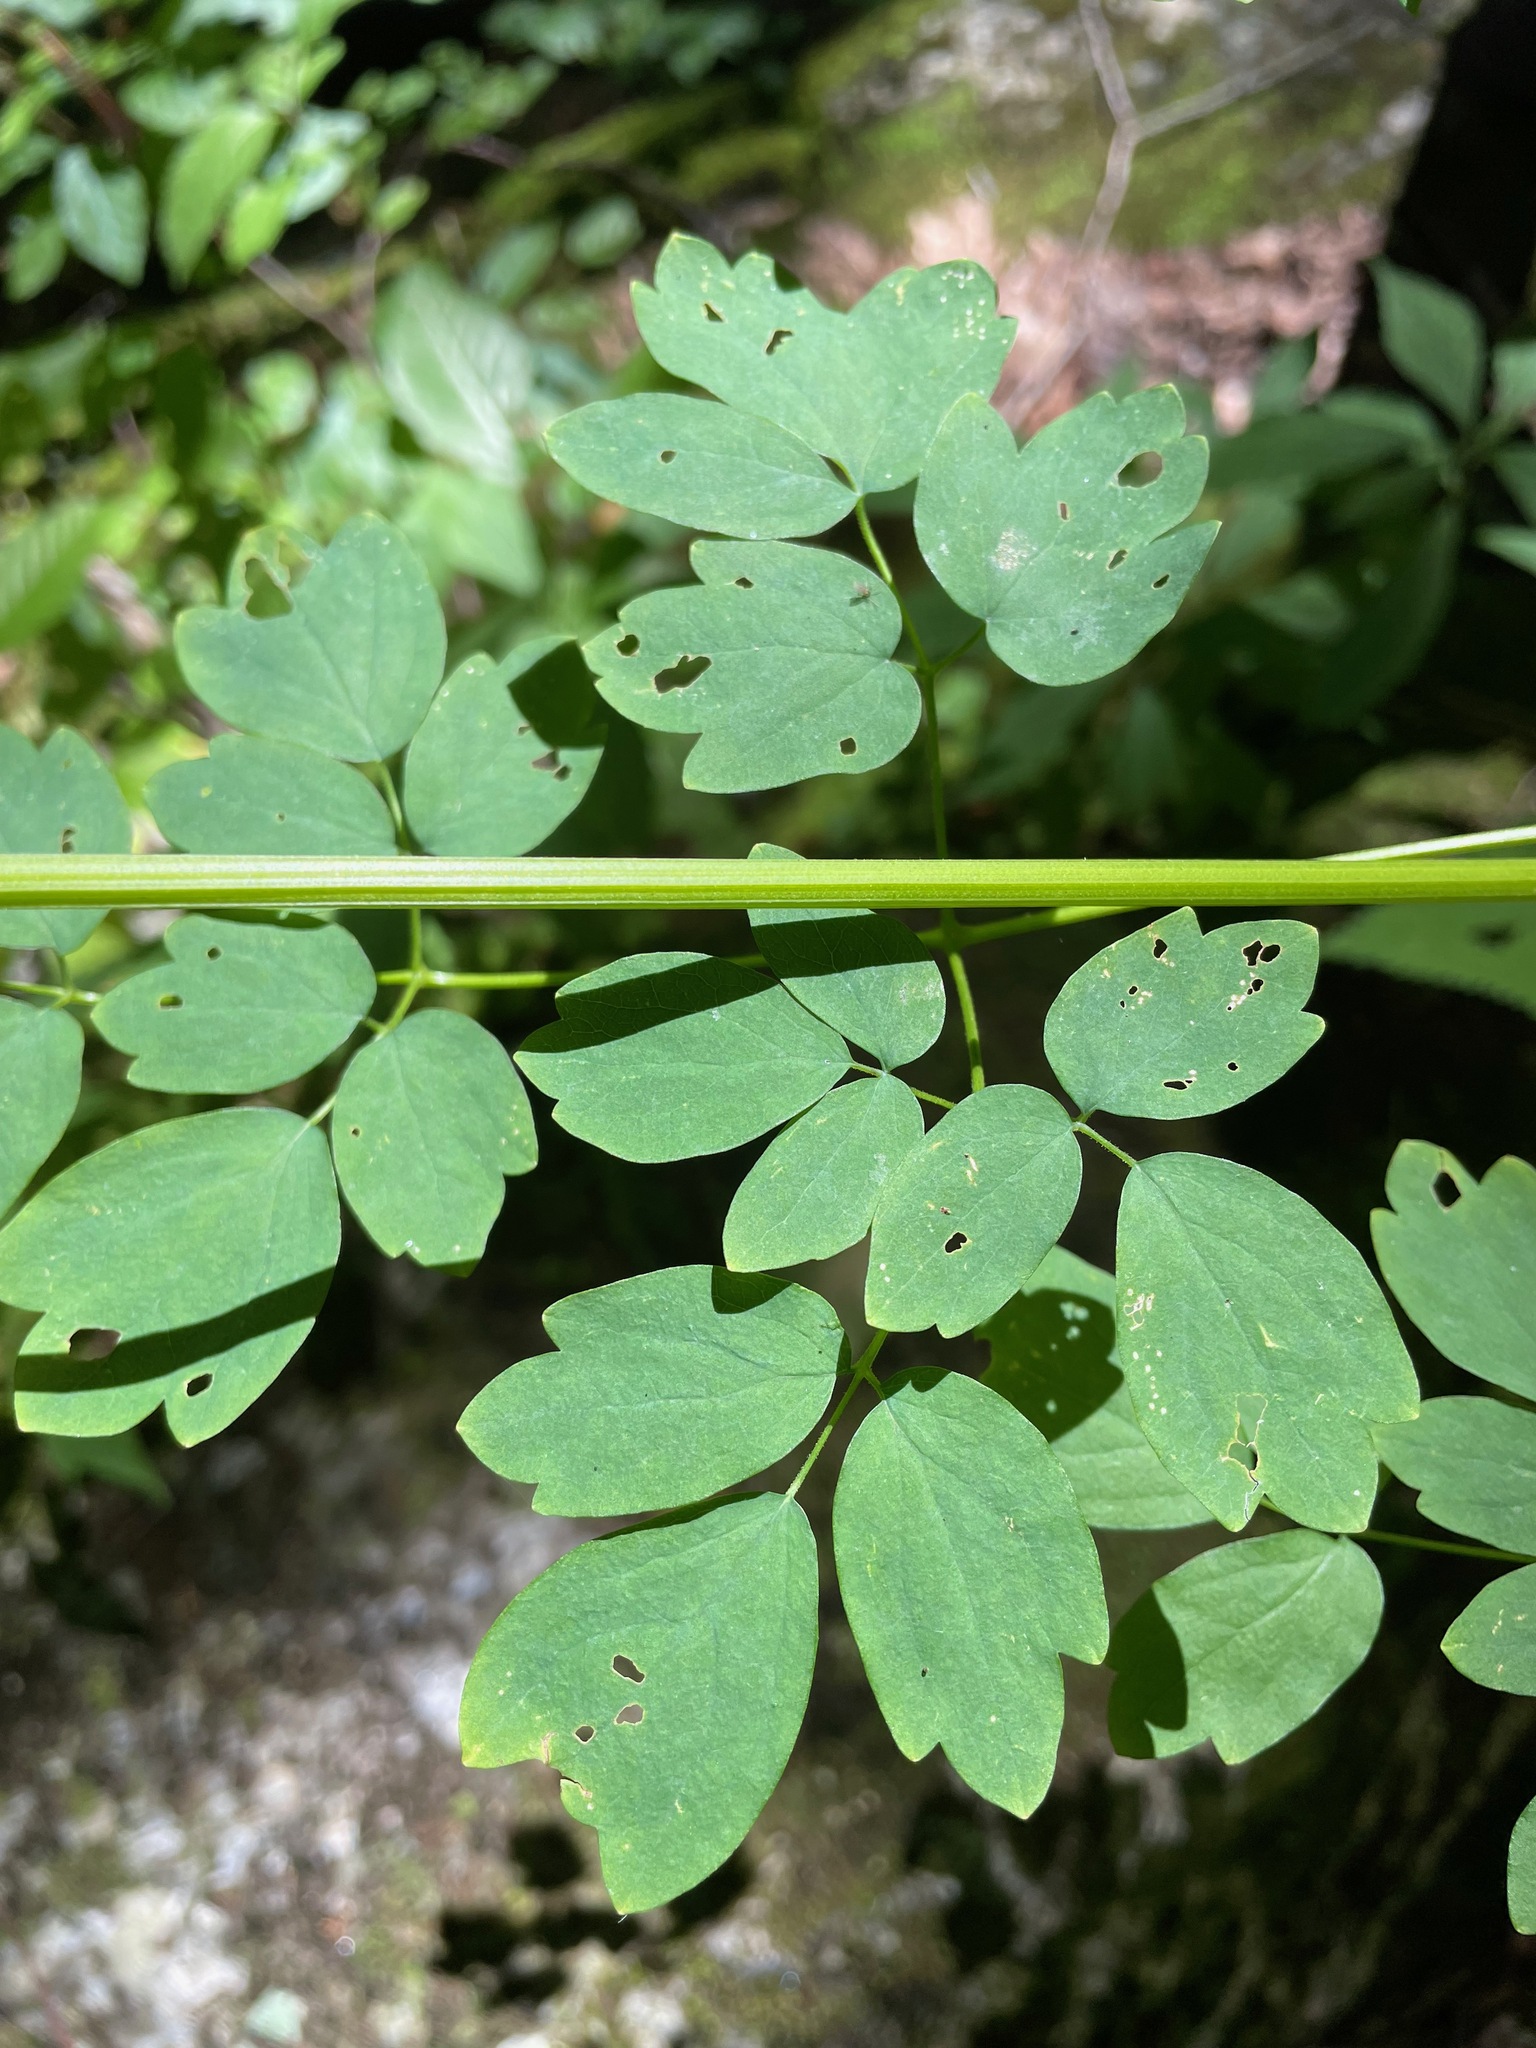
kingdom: Plantae
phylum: Tracheophyta
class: Magnoliopsida
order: Ranunculales
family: Ranunculaceae
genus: Thalictrum
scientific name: Thalictrum pubescens
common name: King-of-the-meadow
